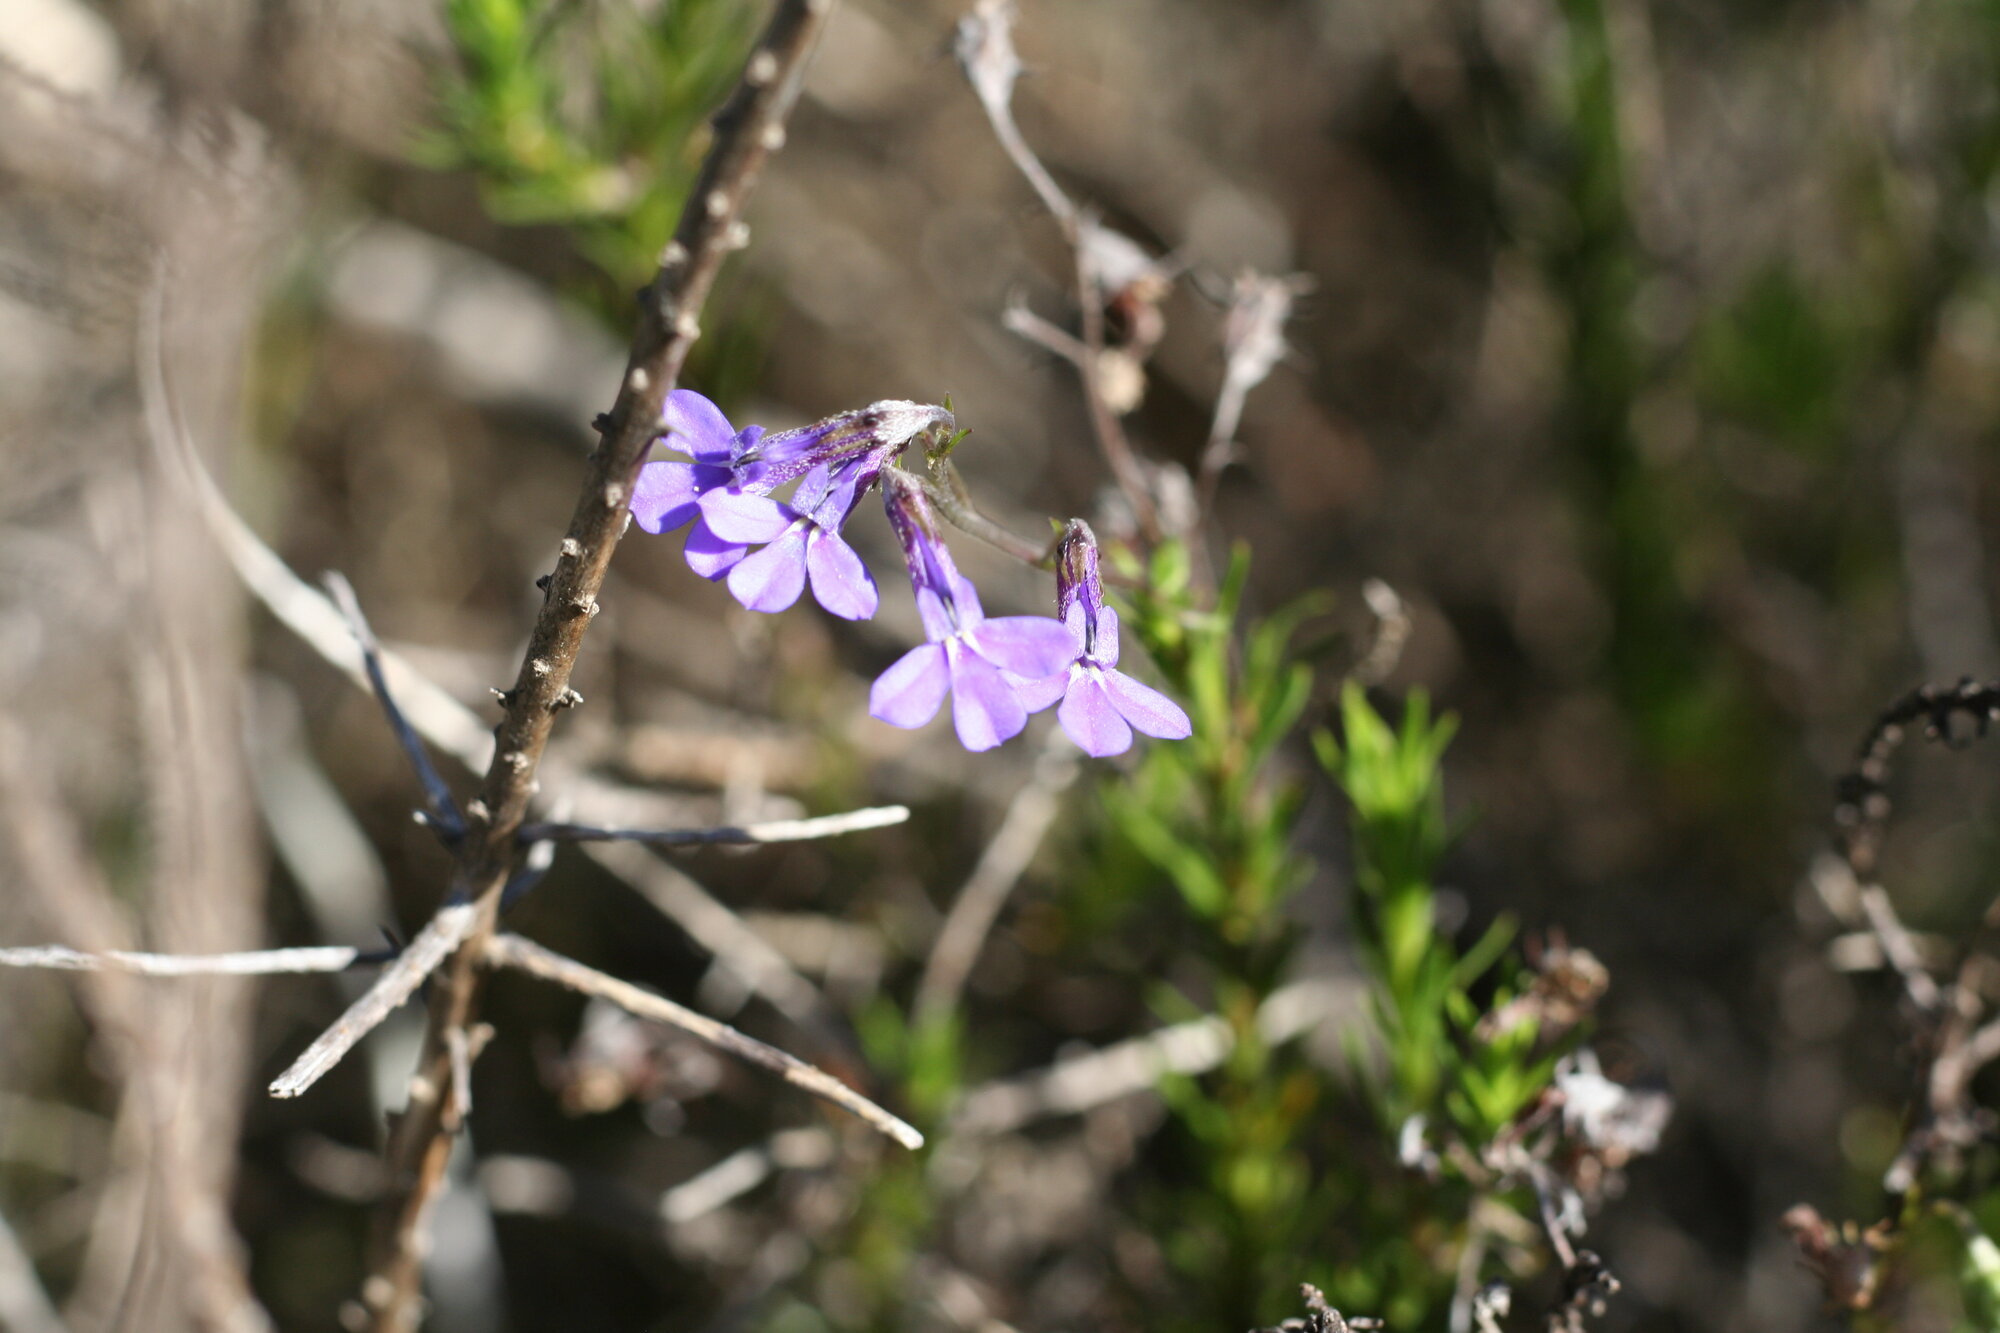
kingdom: Plantae
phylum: Tracheophyta
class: Magnoliopsida
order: Asterales
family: Campanulaceae
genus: Lobelia
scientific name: Lobelia pinifolia
